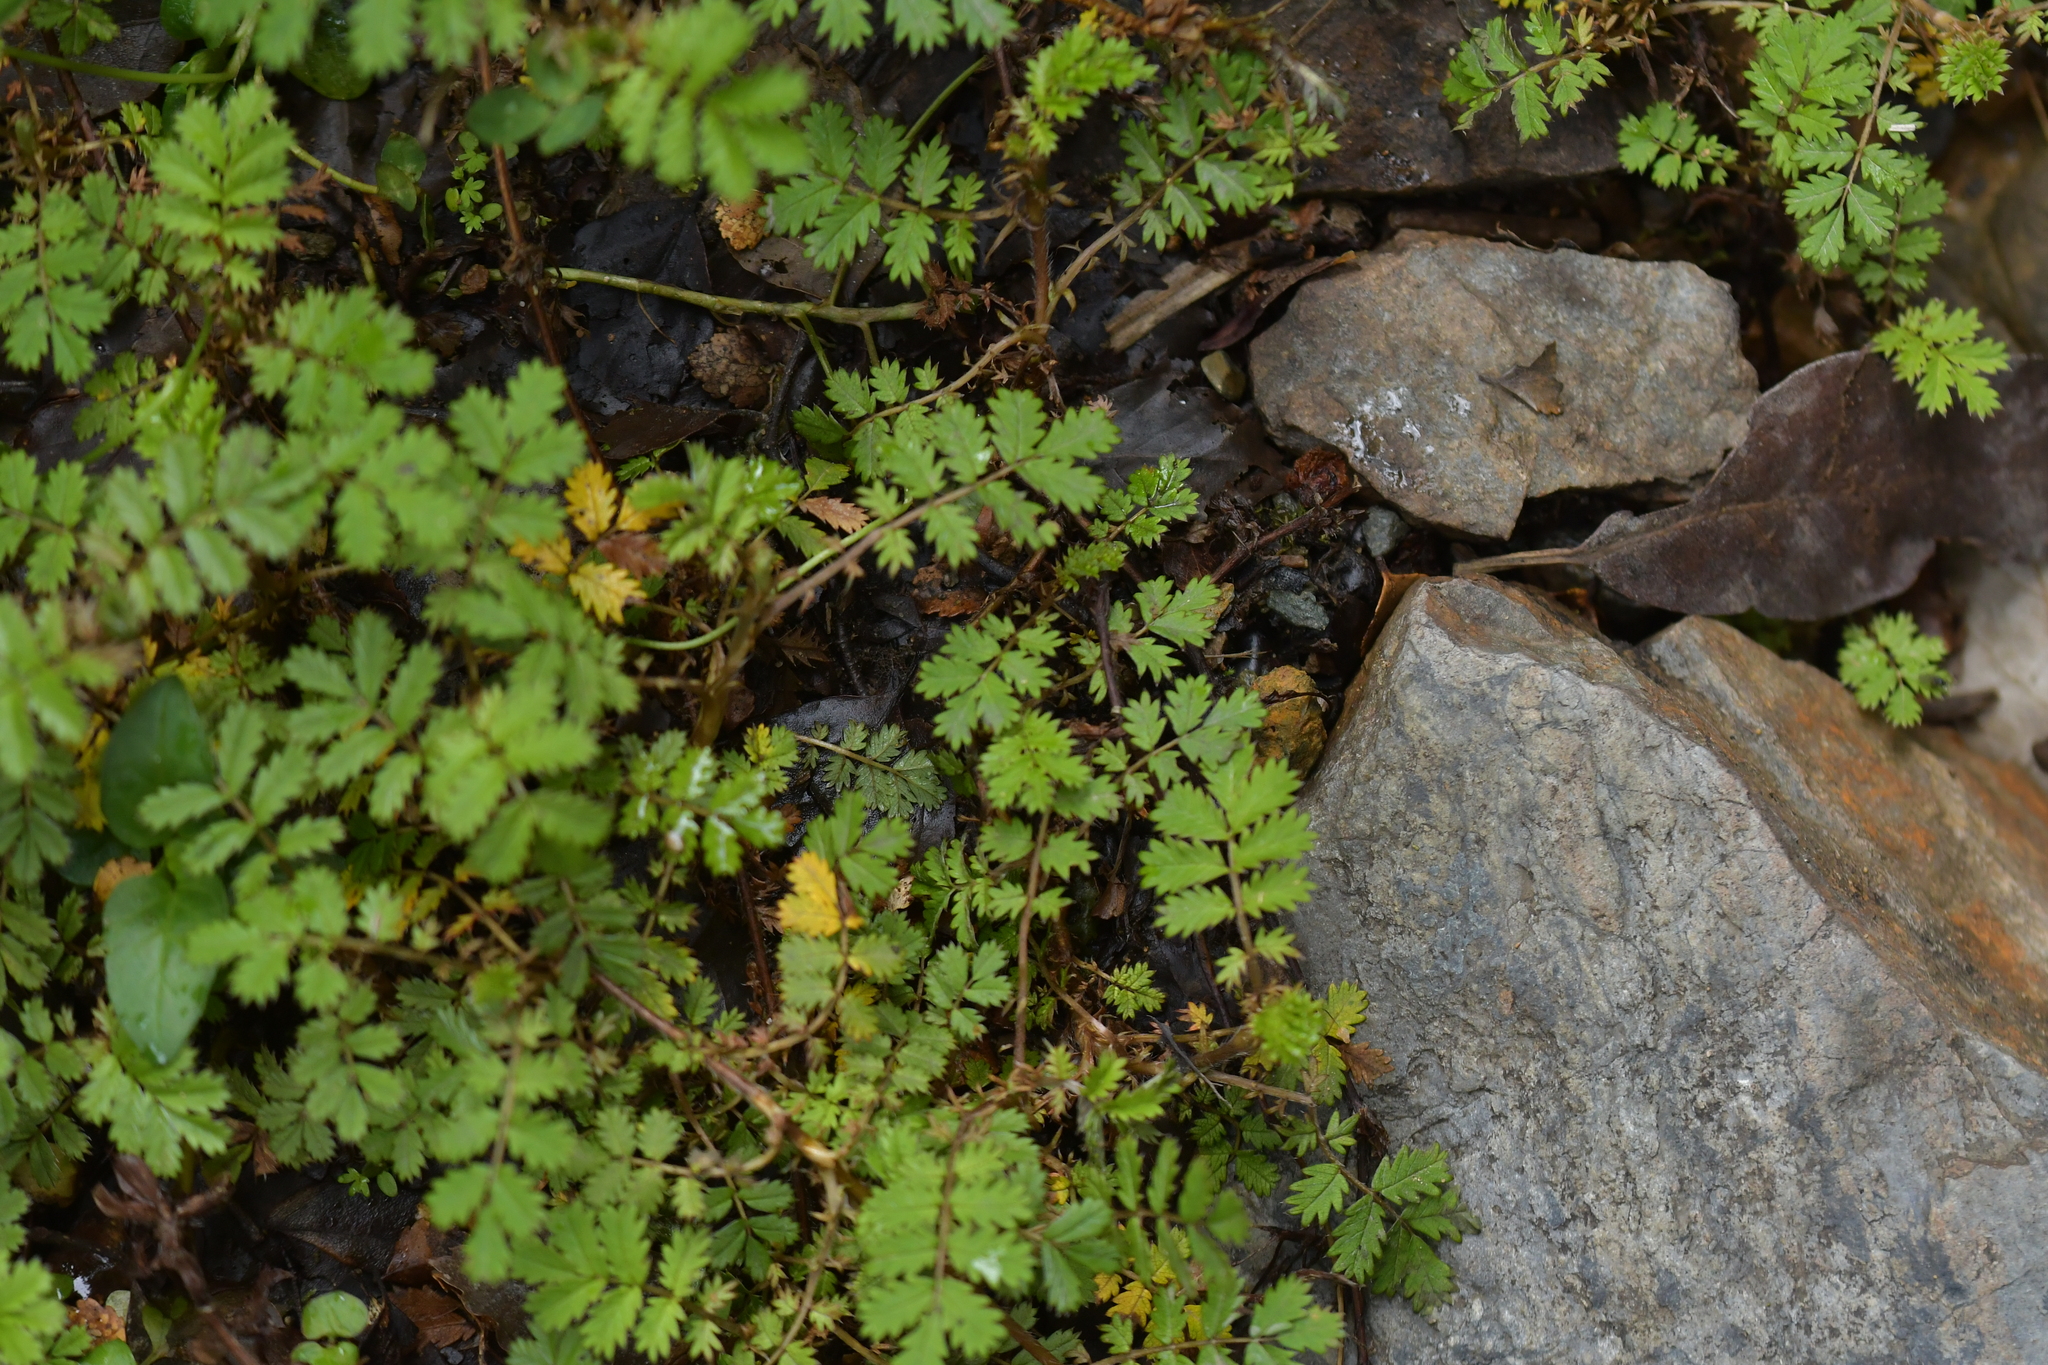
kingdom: Plantae
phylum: Tracheophyta
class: Magnoliopsida
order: Rosales
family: Rosaceae
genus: Acaena
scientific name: Acaena anserinifolia
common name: Bronze pirri-pirri-bur
